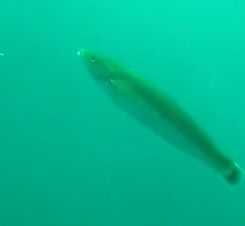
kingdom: Animalia
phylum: Chordata
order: Perciformes
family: Labridae
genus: Oxyjulis
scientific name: Oxyjulis californica
